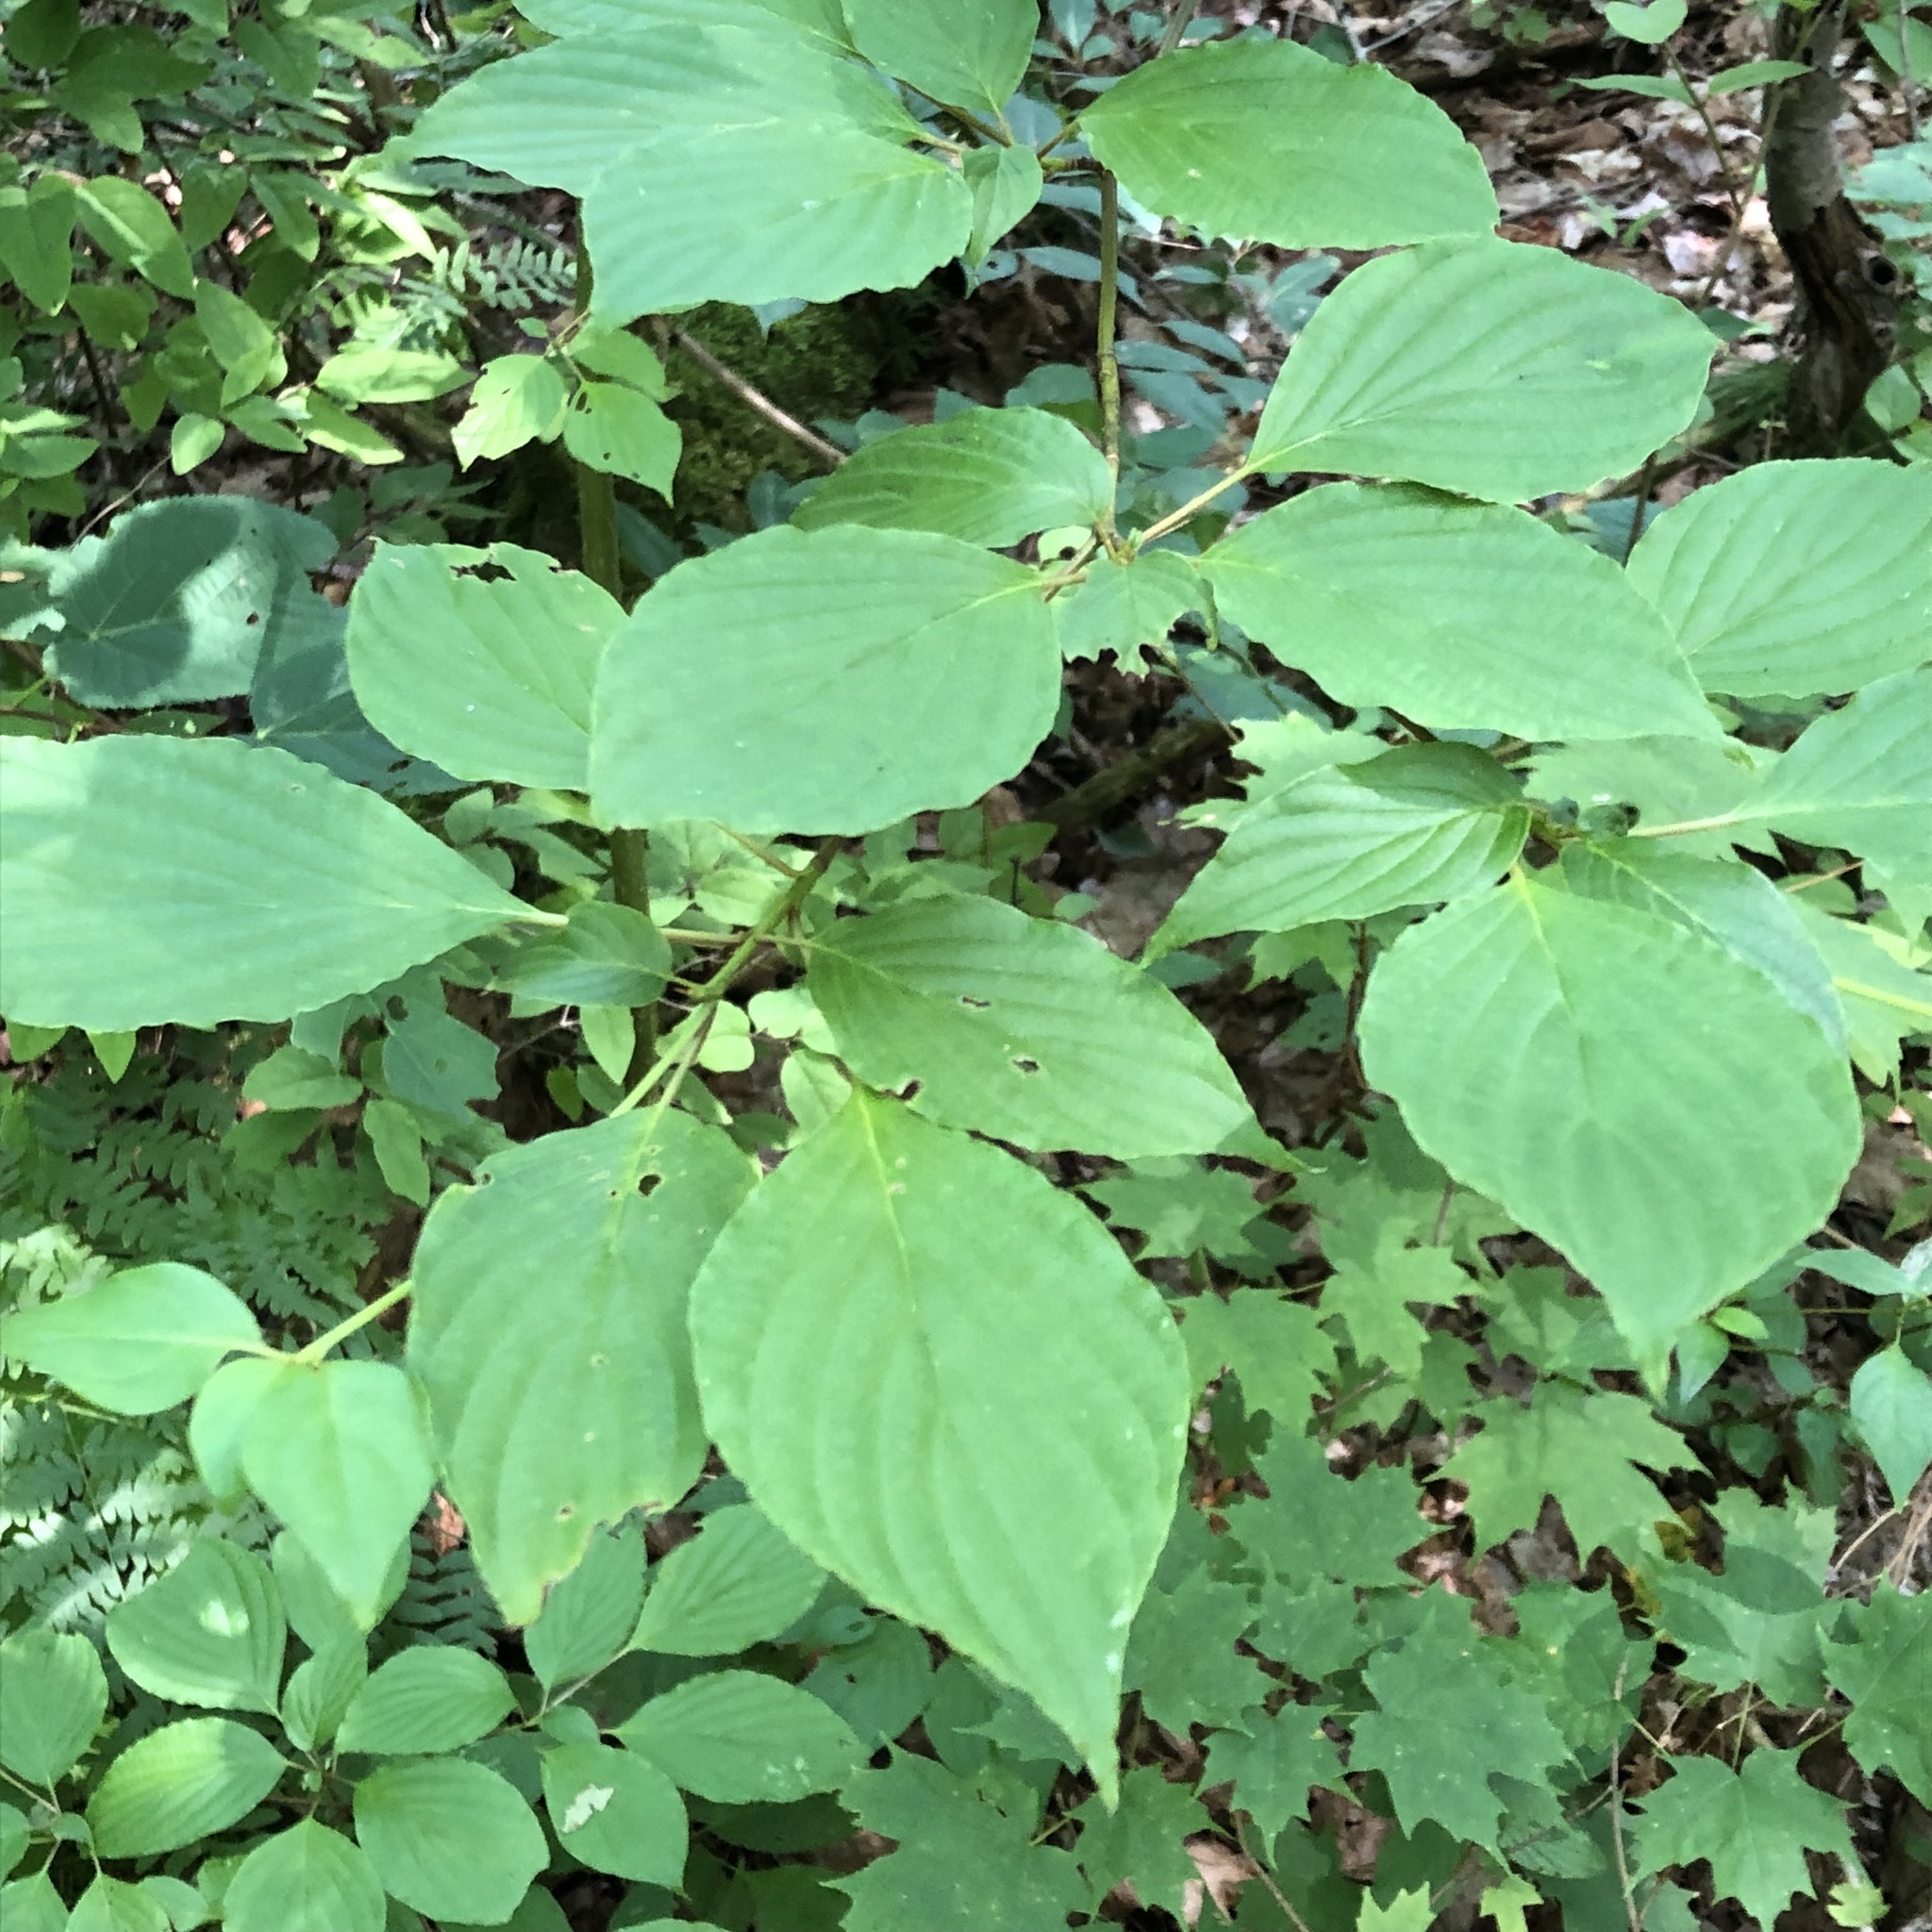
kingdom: Plantae
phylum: Tracheophyta
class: Magnoliopsida
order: Cornales
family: Cornaceae
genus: Cornus
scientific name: Cornus alternifolia
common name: Pagoda dogwood
